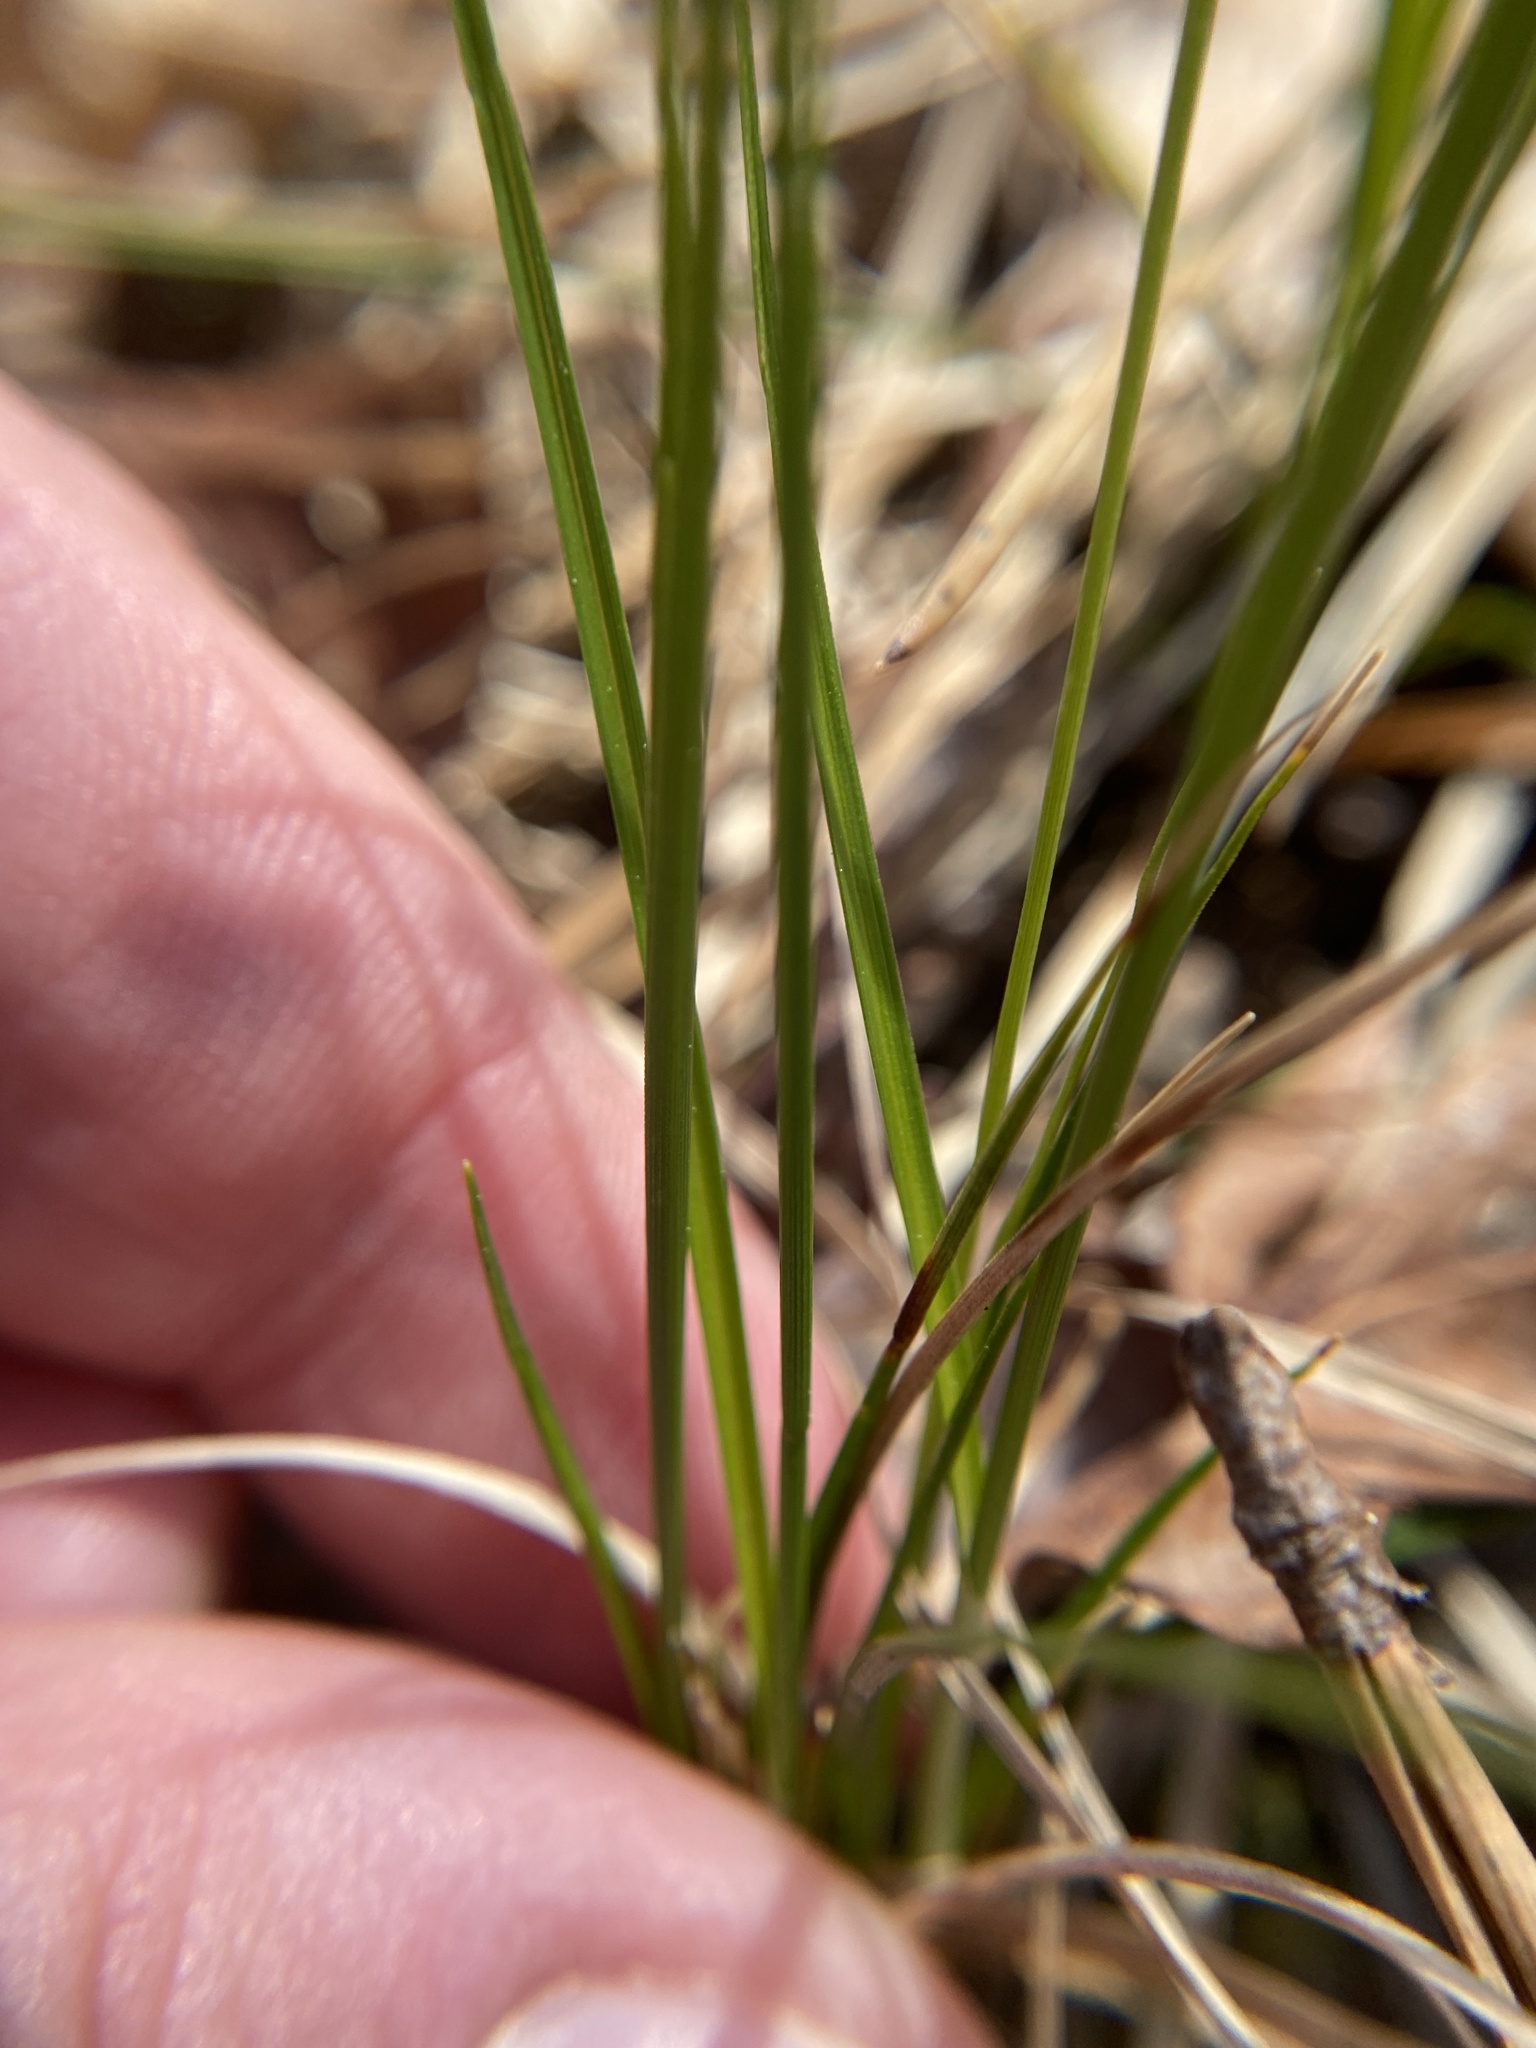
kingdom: Plantae
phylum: Tracheophyta
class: Liliopsida
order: Poales
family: Cyperaceae
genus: Carex
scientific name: Carex pensylvanica
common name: Common oak sedge
